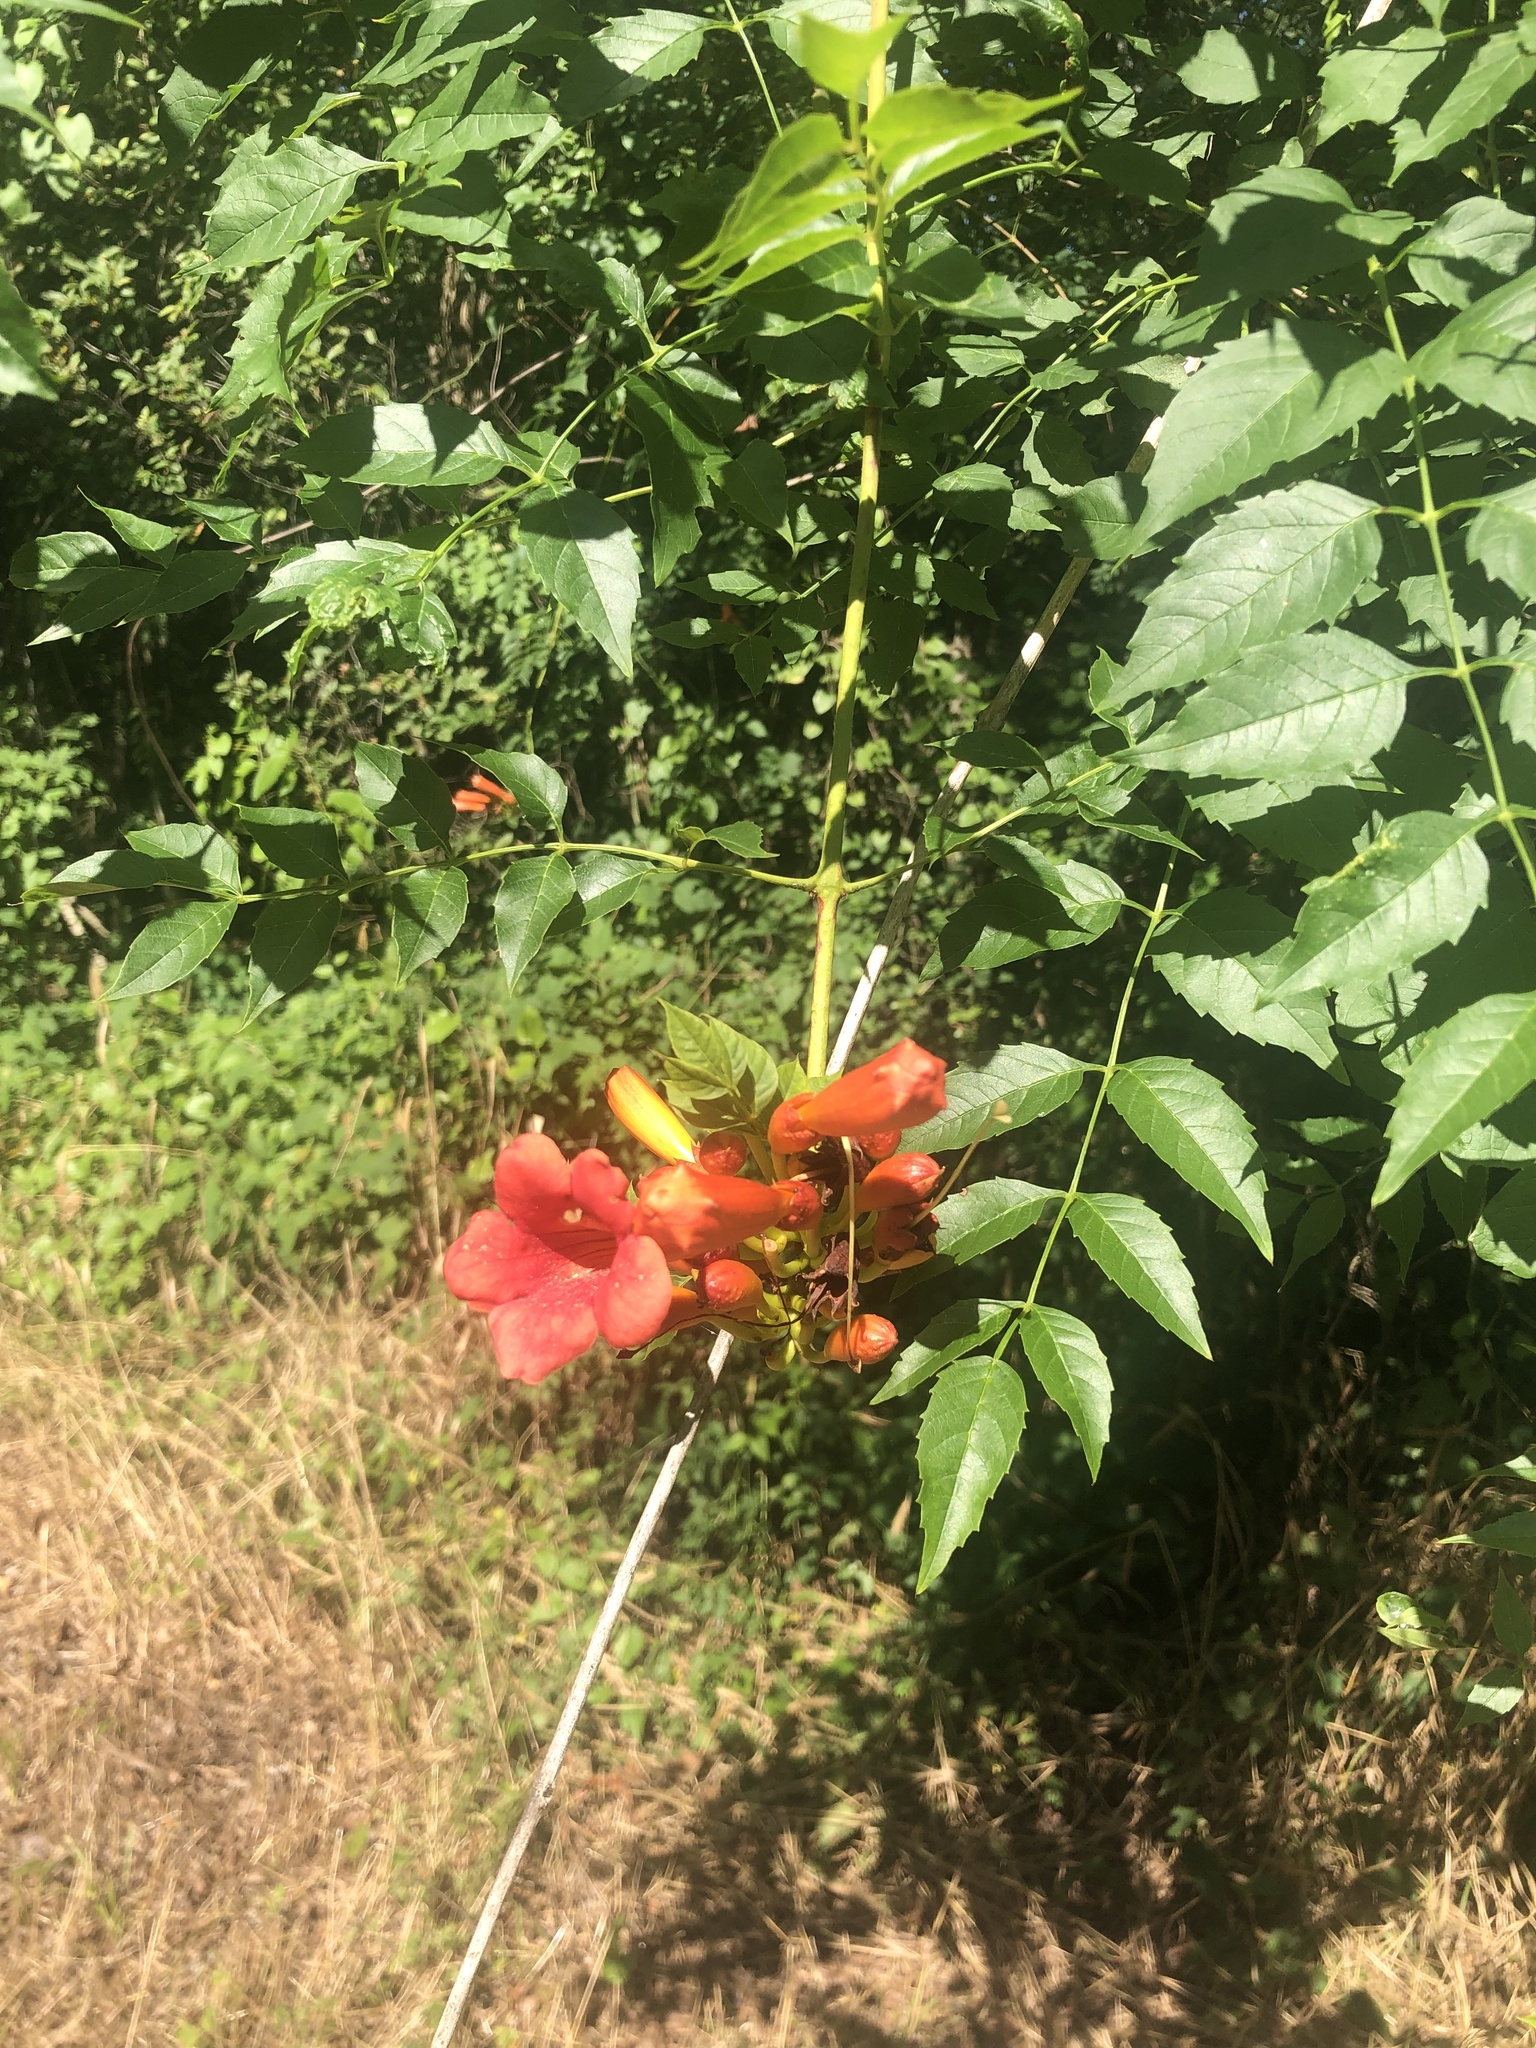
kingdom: Plantae
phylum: Tracheophyta
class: Magnoliopsida
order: Lamiales
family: Bignoniaceae
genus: Campsis
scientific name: Campsis radicans
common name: Trumpet-creeper
